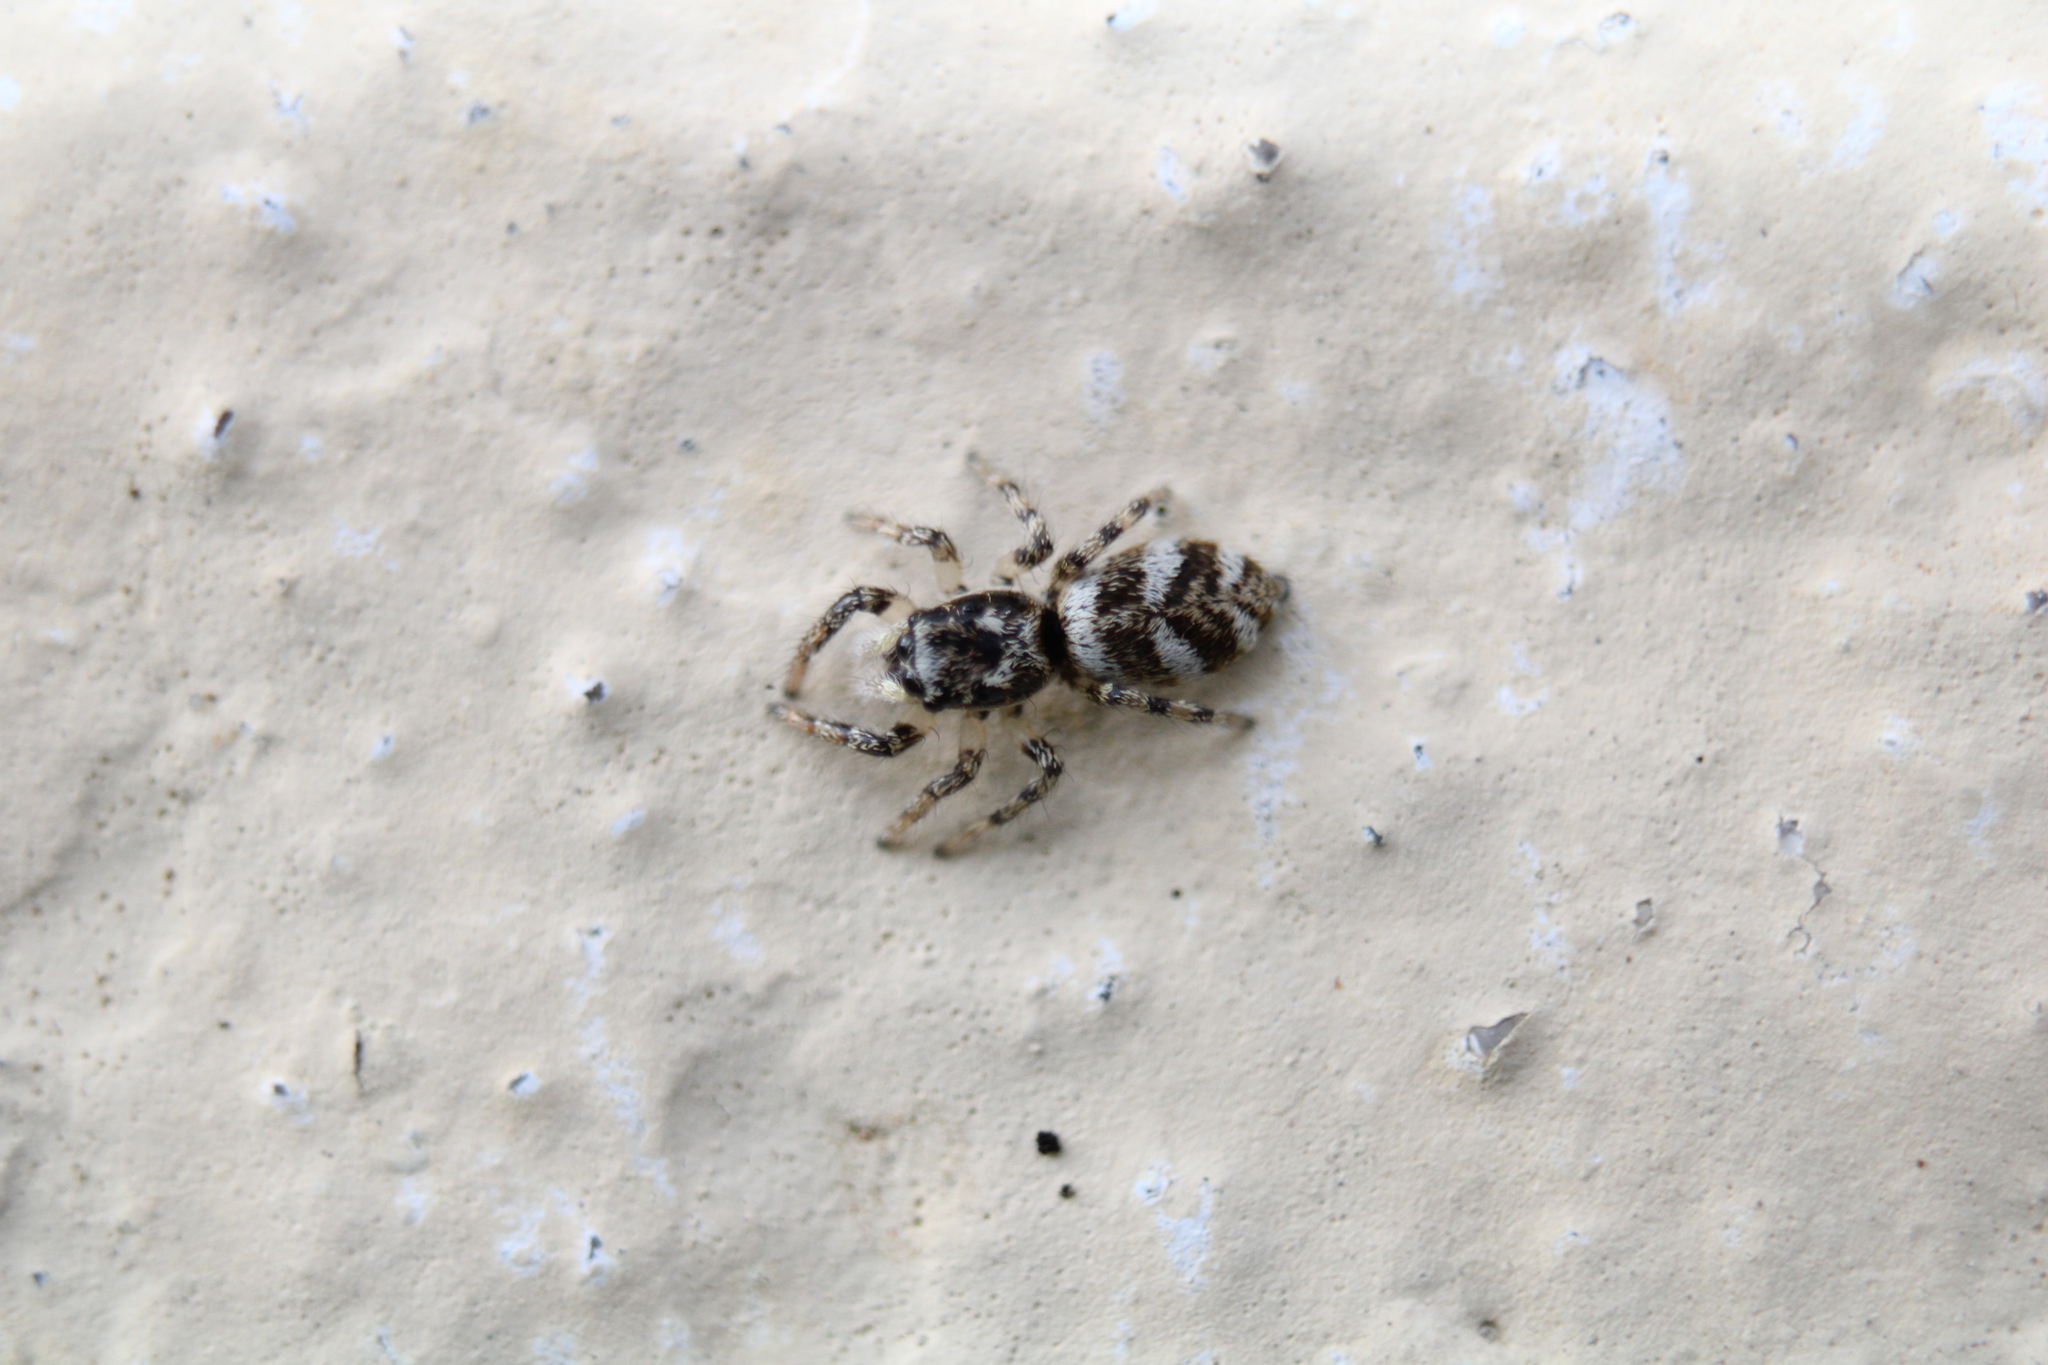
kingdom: Animalia
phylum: Arthropoda
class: Arachnida
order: Araneae
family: Salticidae
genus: Salticus
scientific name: Salticus scenicus
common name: Zebra jumper
